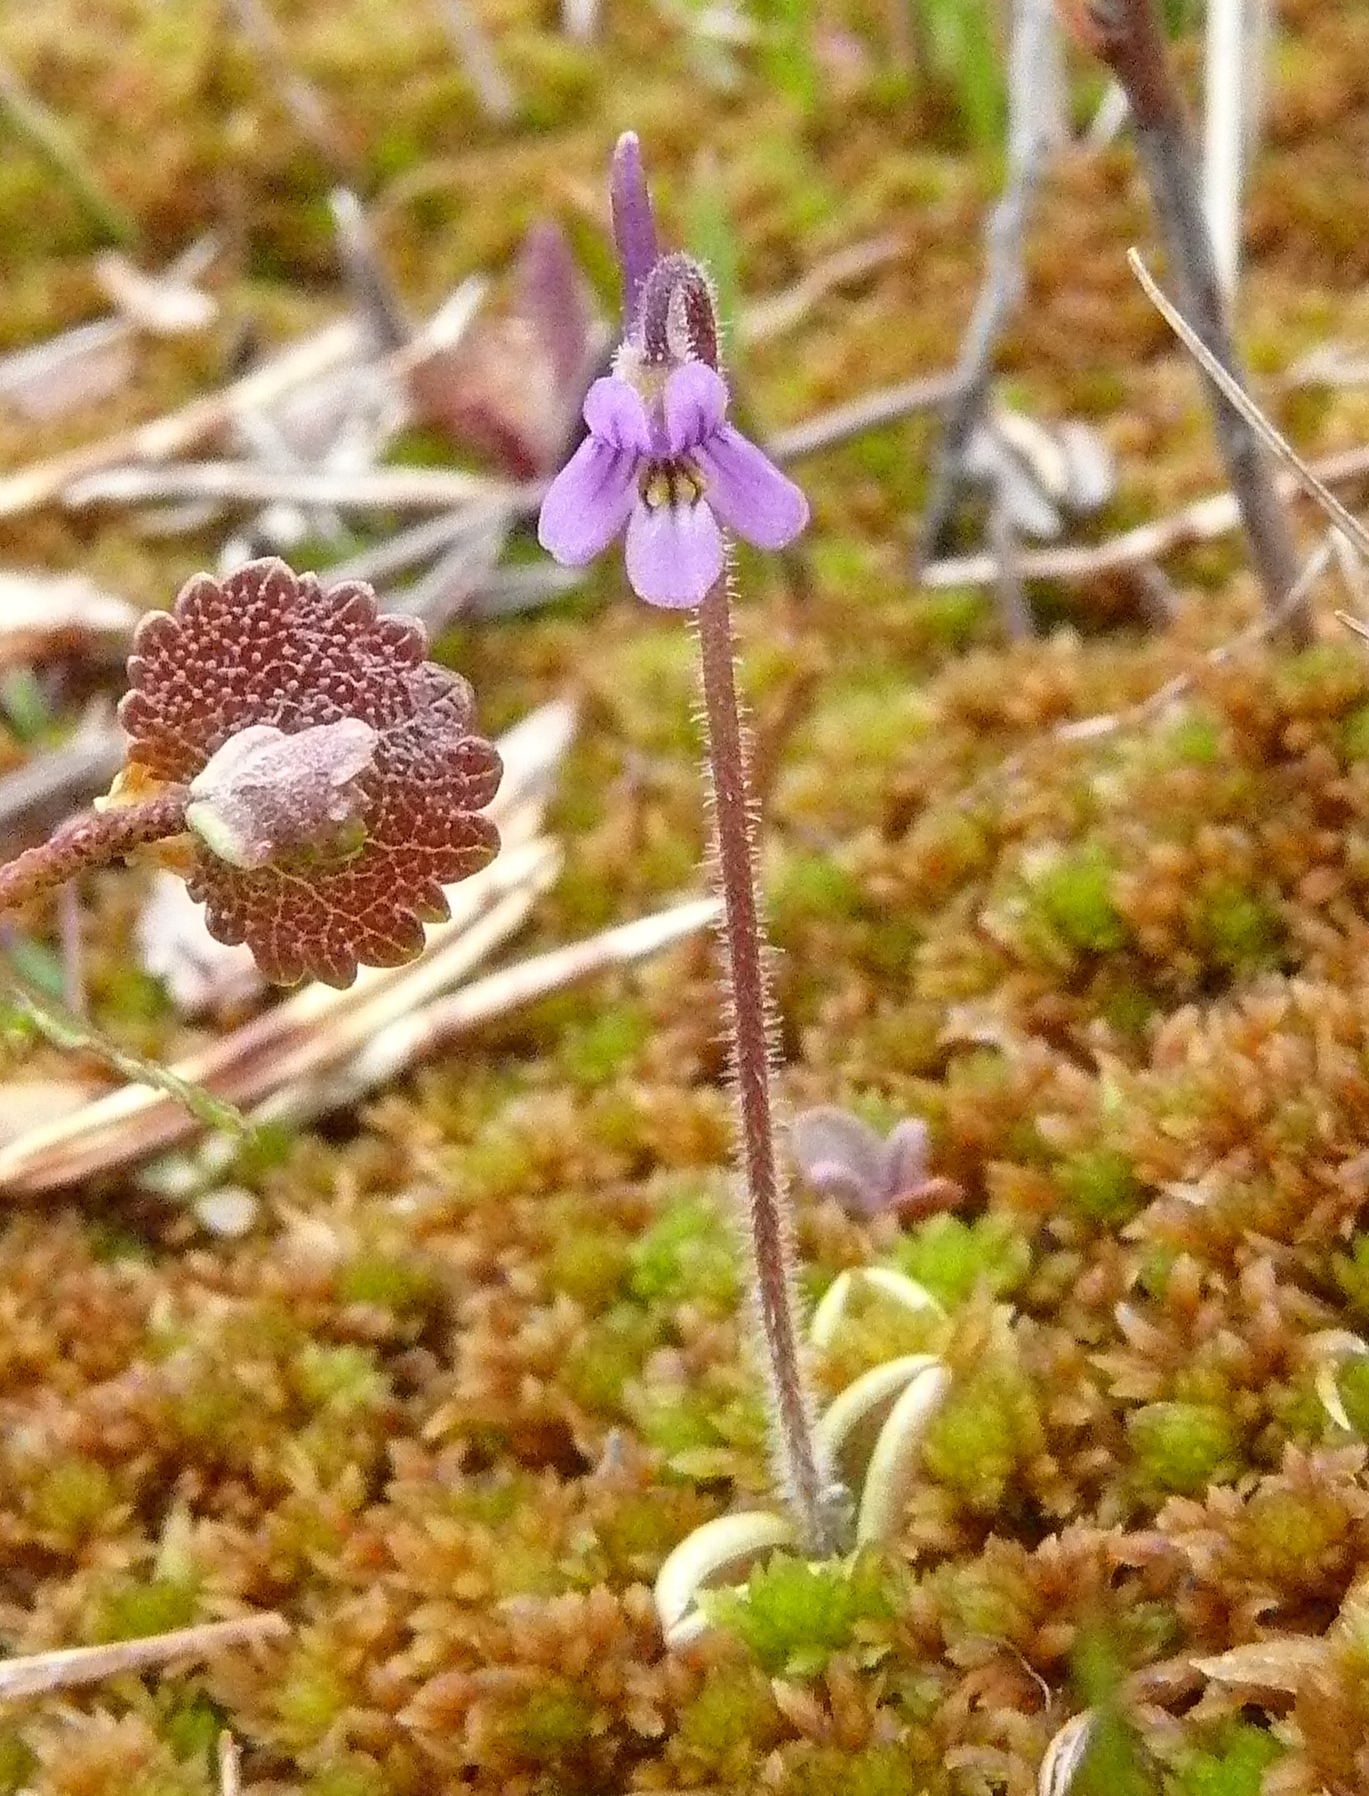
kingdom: Plantae
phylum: Tracheophyta
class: Magnoliopsida
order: Lamiales
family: Lentibulariaceae
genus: Pinguicula
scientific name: Pinguicula villosa
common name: Hairy butterwort
